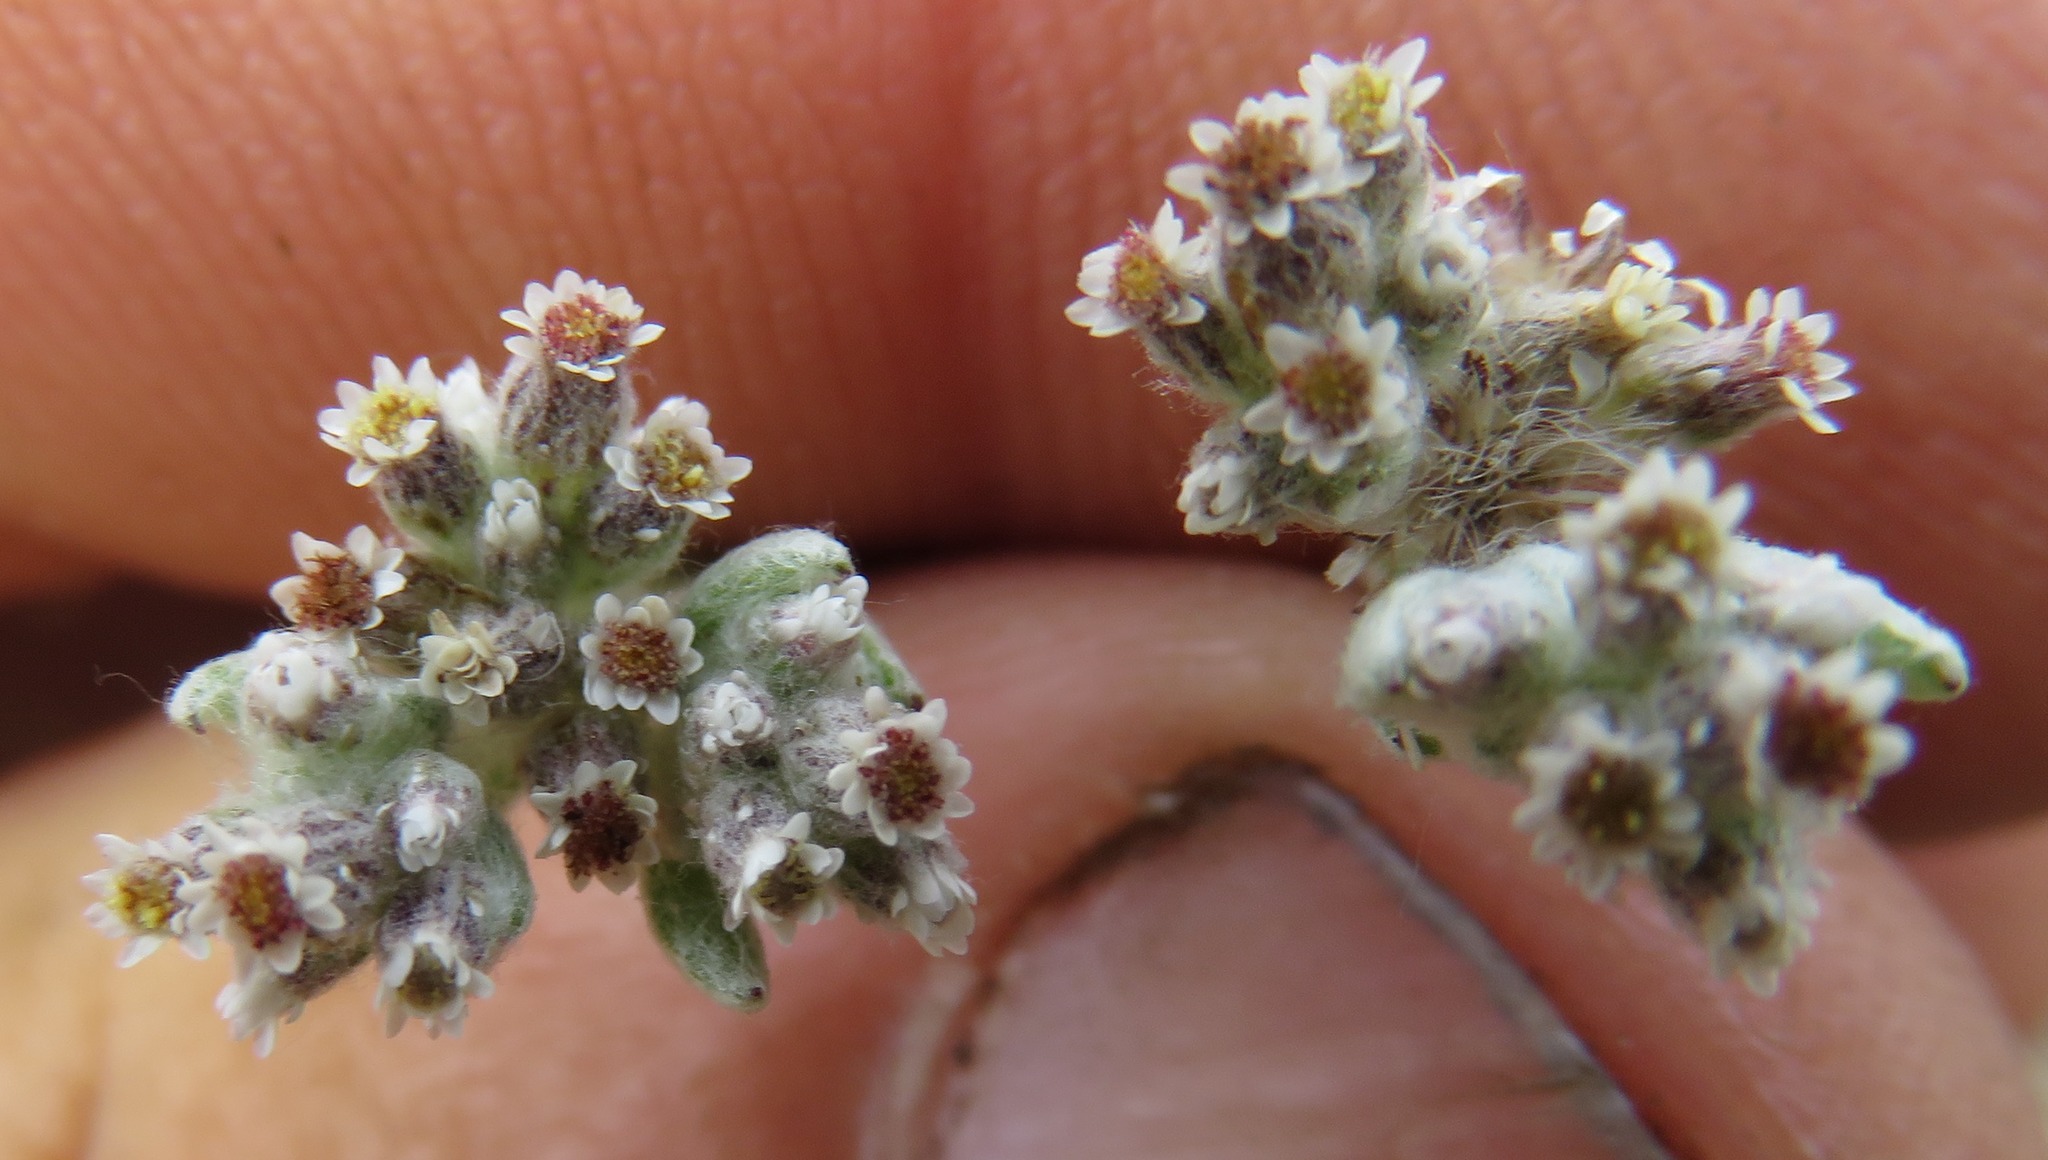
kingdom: Plantae
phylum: Tracheophyta
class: Magnoliopsida
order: Asterales
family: Asteraceae
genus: Vellereophyton
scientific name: Vellereophyton dealbatum
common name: White-cudweed
